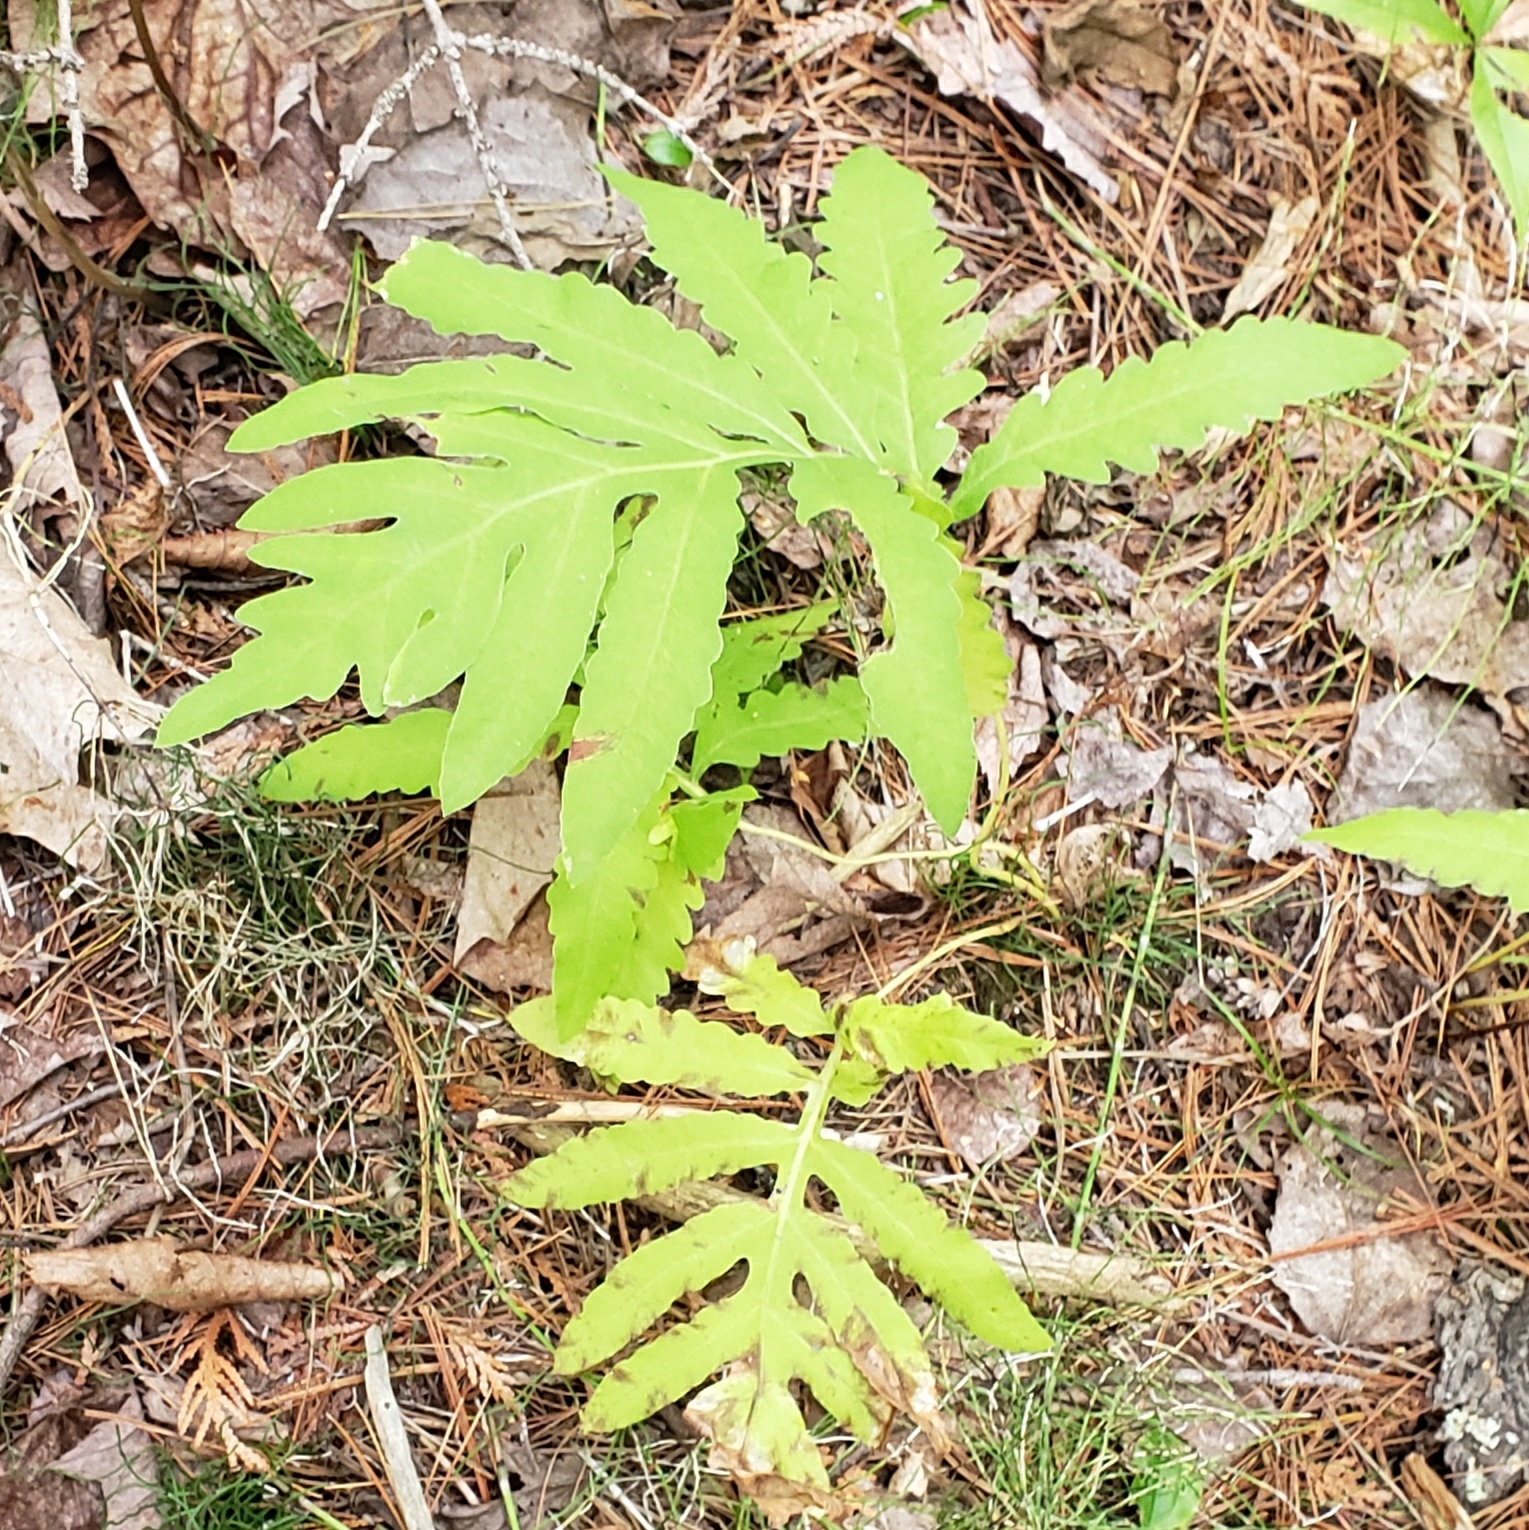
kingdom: Plantae
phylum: Tracheophyta
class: Polypodiopsida
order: Polypodiales
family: Onocleaceae
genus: Onoclea
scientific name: Onoclea sensibilis
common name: Sensitive fern
